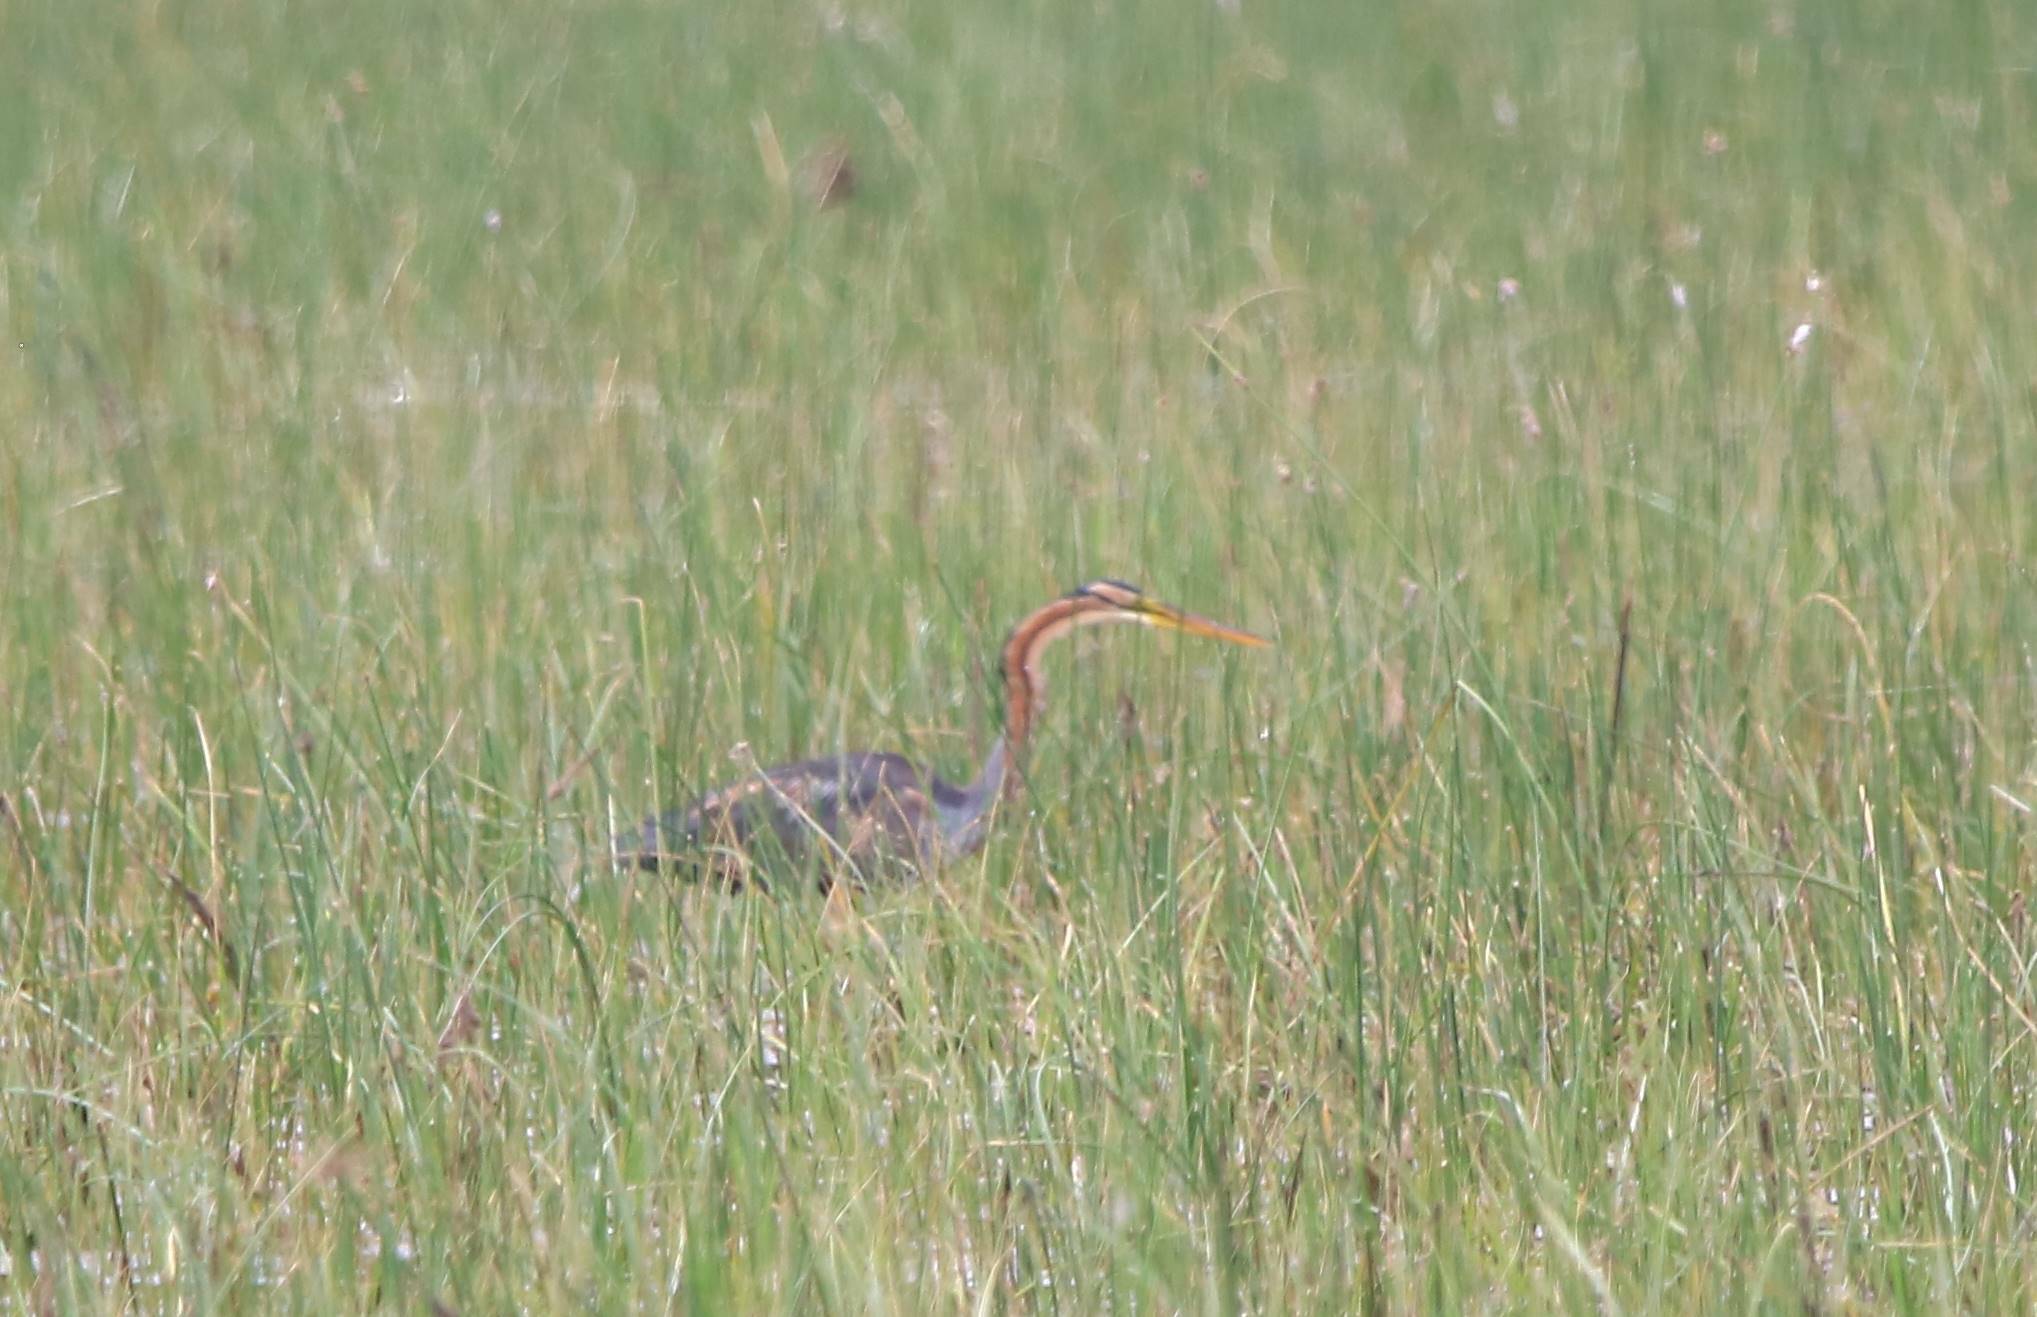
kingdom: Animalia
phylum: Chordata
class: Aves
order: Pelecaniformes
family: Ardeidae
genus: Ardea
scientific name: Ardea purpurea
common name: Purple heron
